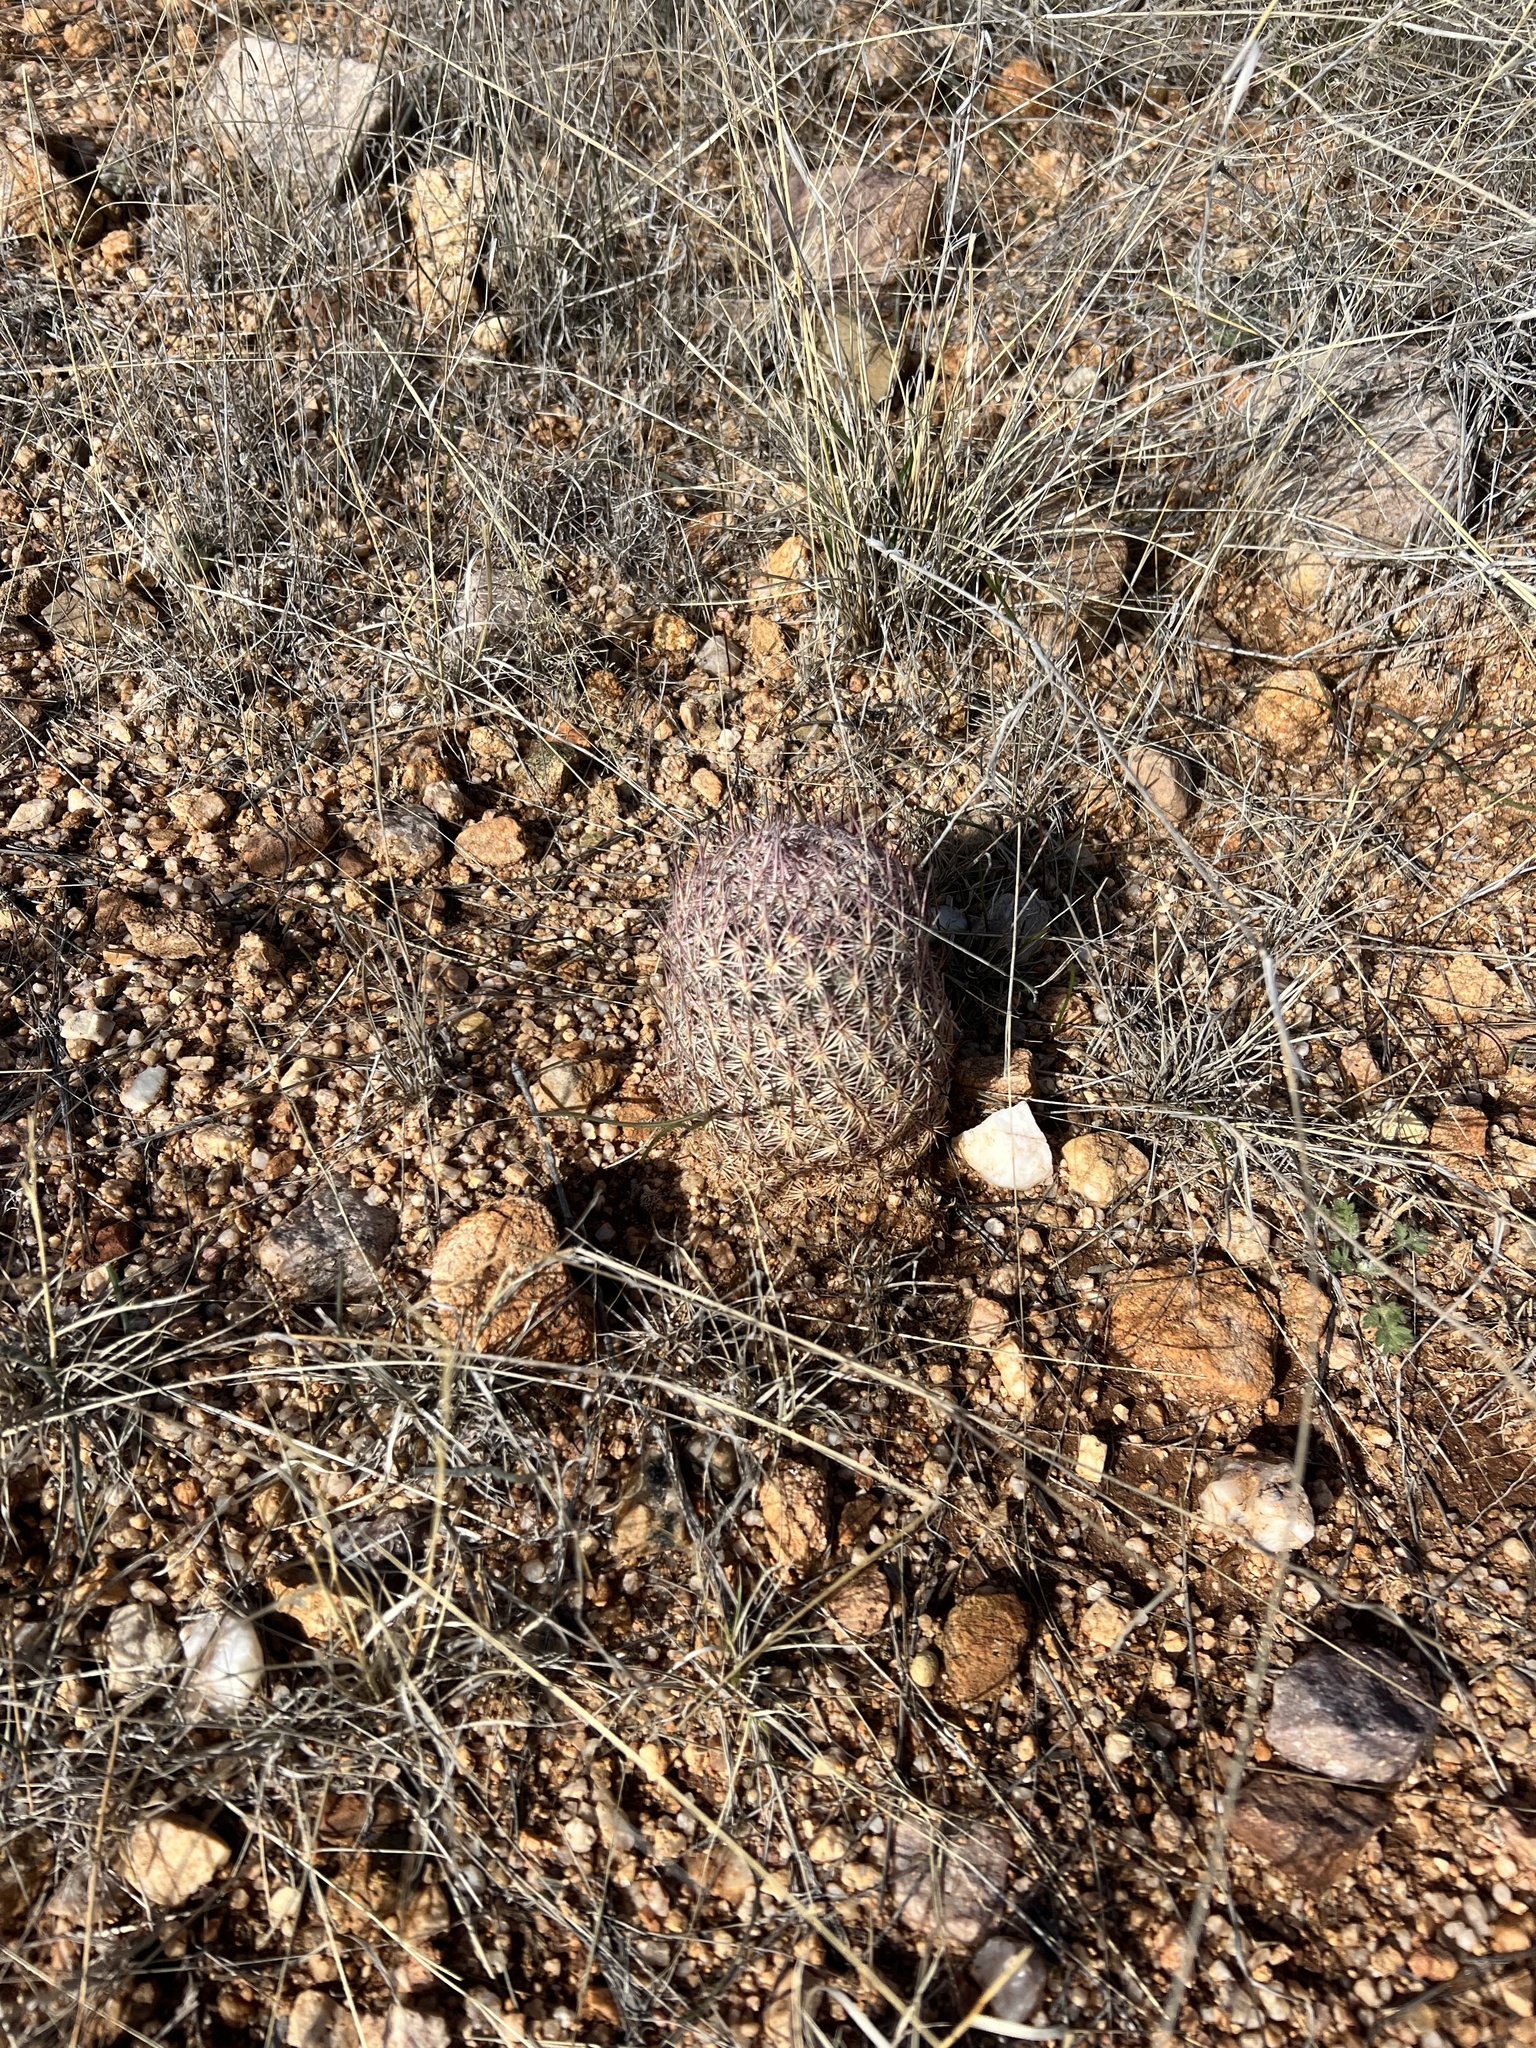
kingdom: Plantae
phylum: Tracheophyta
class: Magnoliopsida
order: Caryophyllales
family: Cactaceae
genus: Sclerocactus
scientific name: Sclerocactus johnsonii
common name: Eight-spine fishhook cactus
